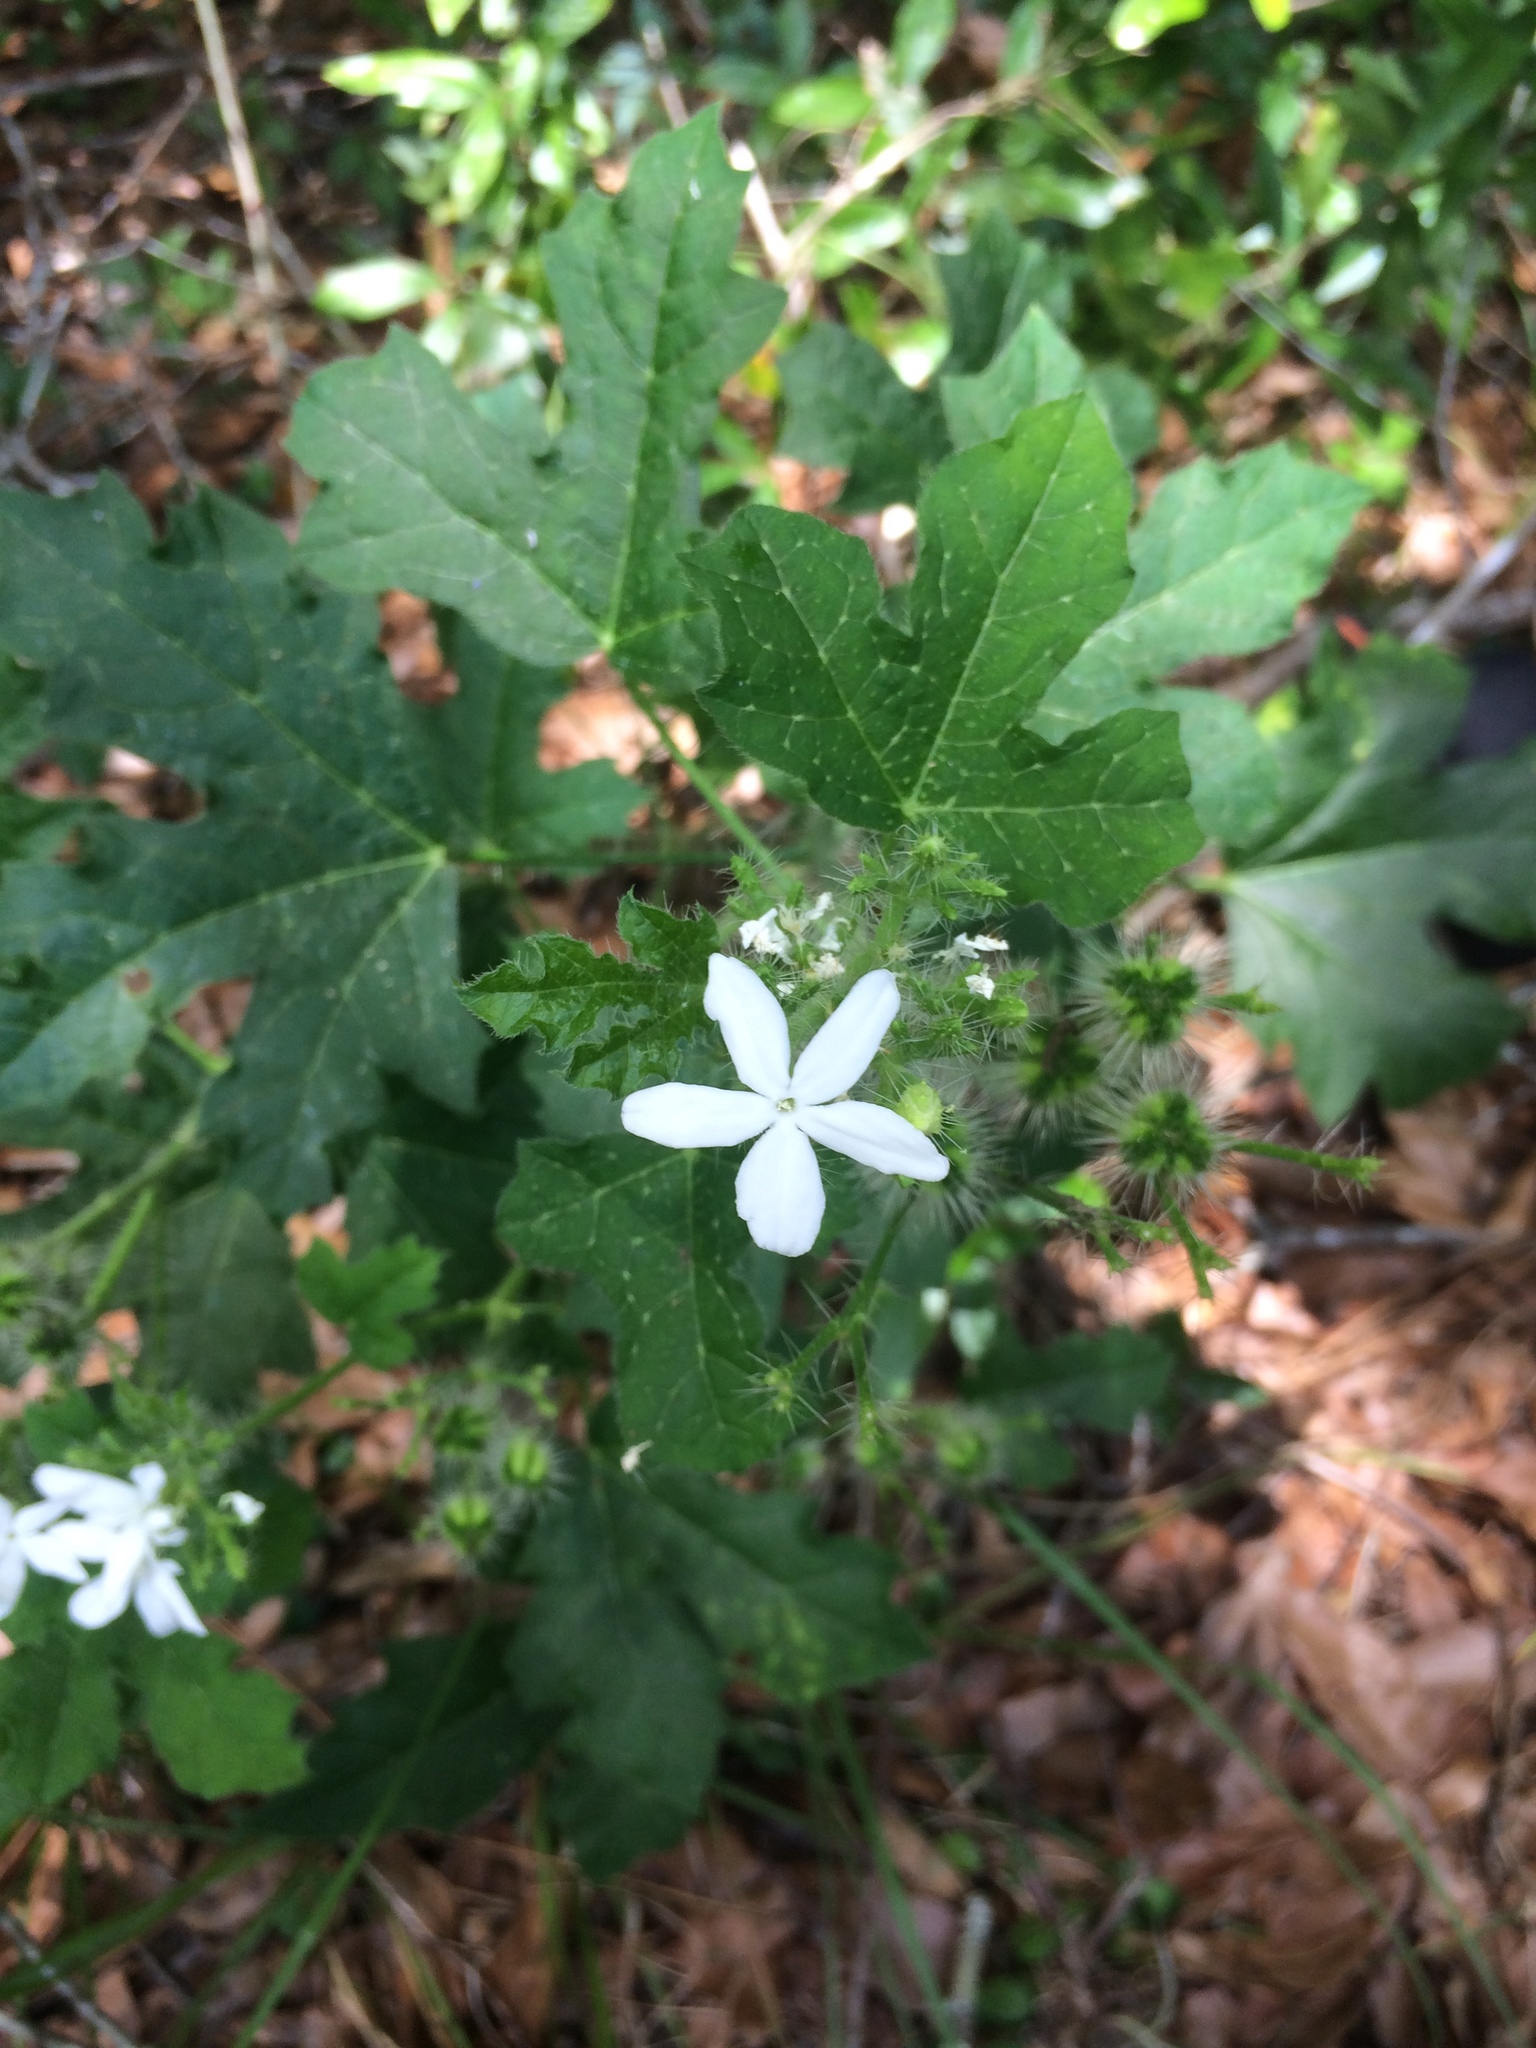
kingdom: Plantae
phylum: Tracheophyta
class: Magnoliopsida
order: Malpighiales
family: Euphorbiaceae
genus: Cnidoscolus
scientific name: Cnidoscolus stimulosus
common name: Bull-nettle
